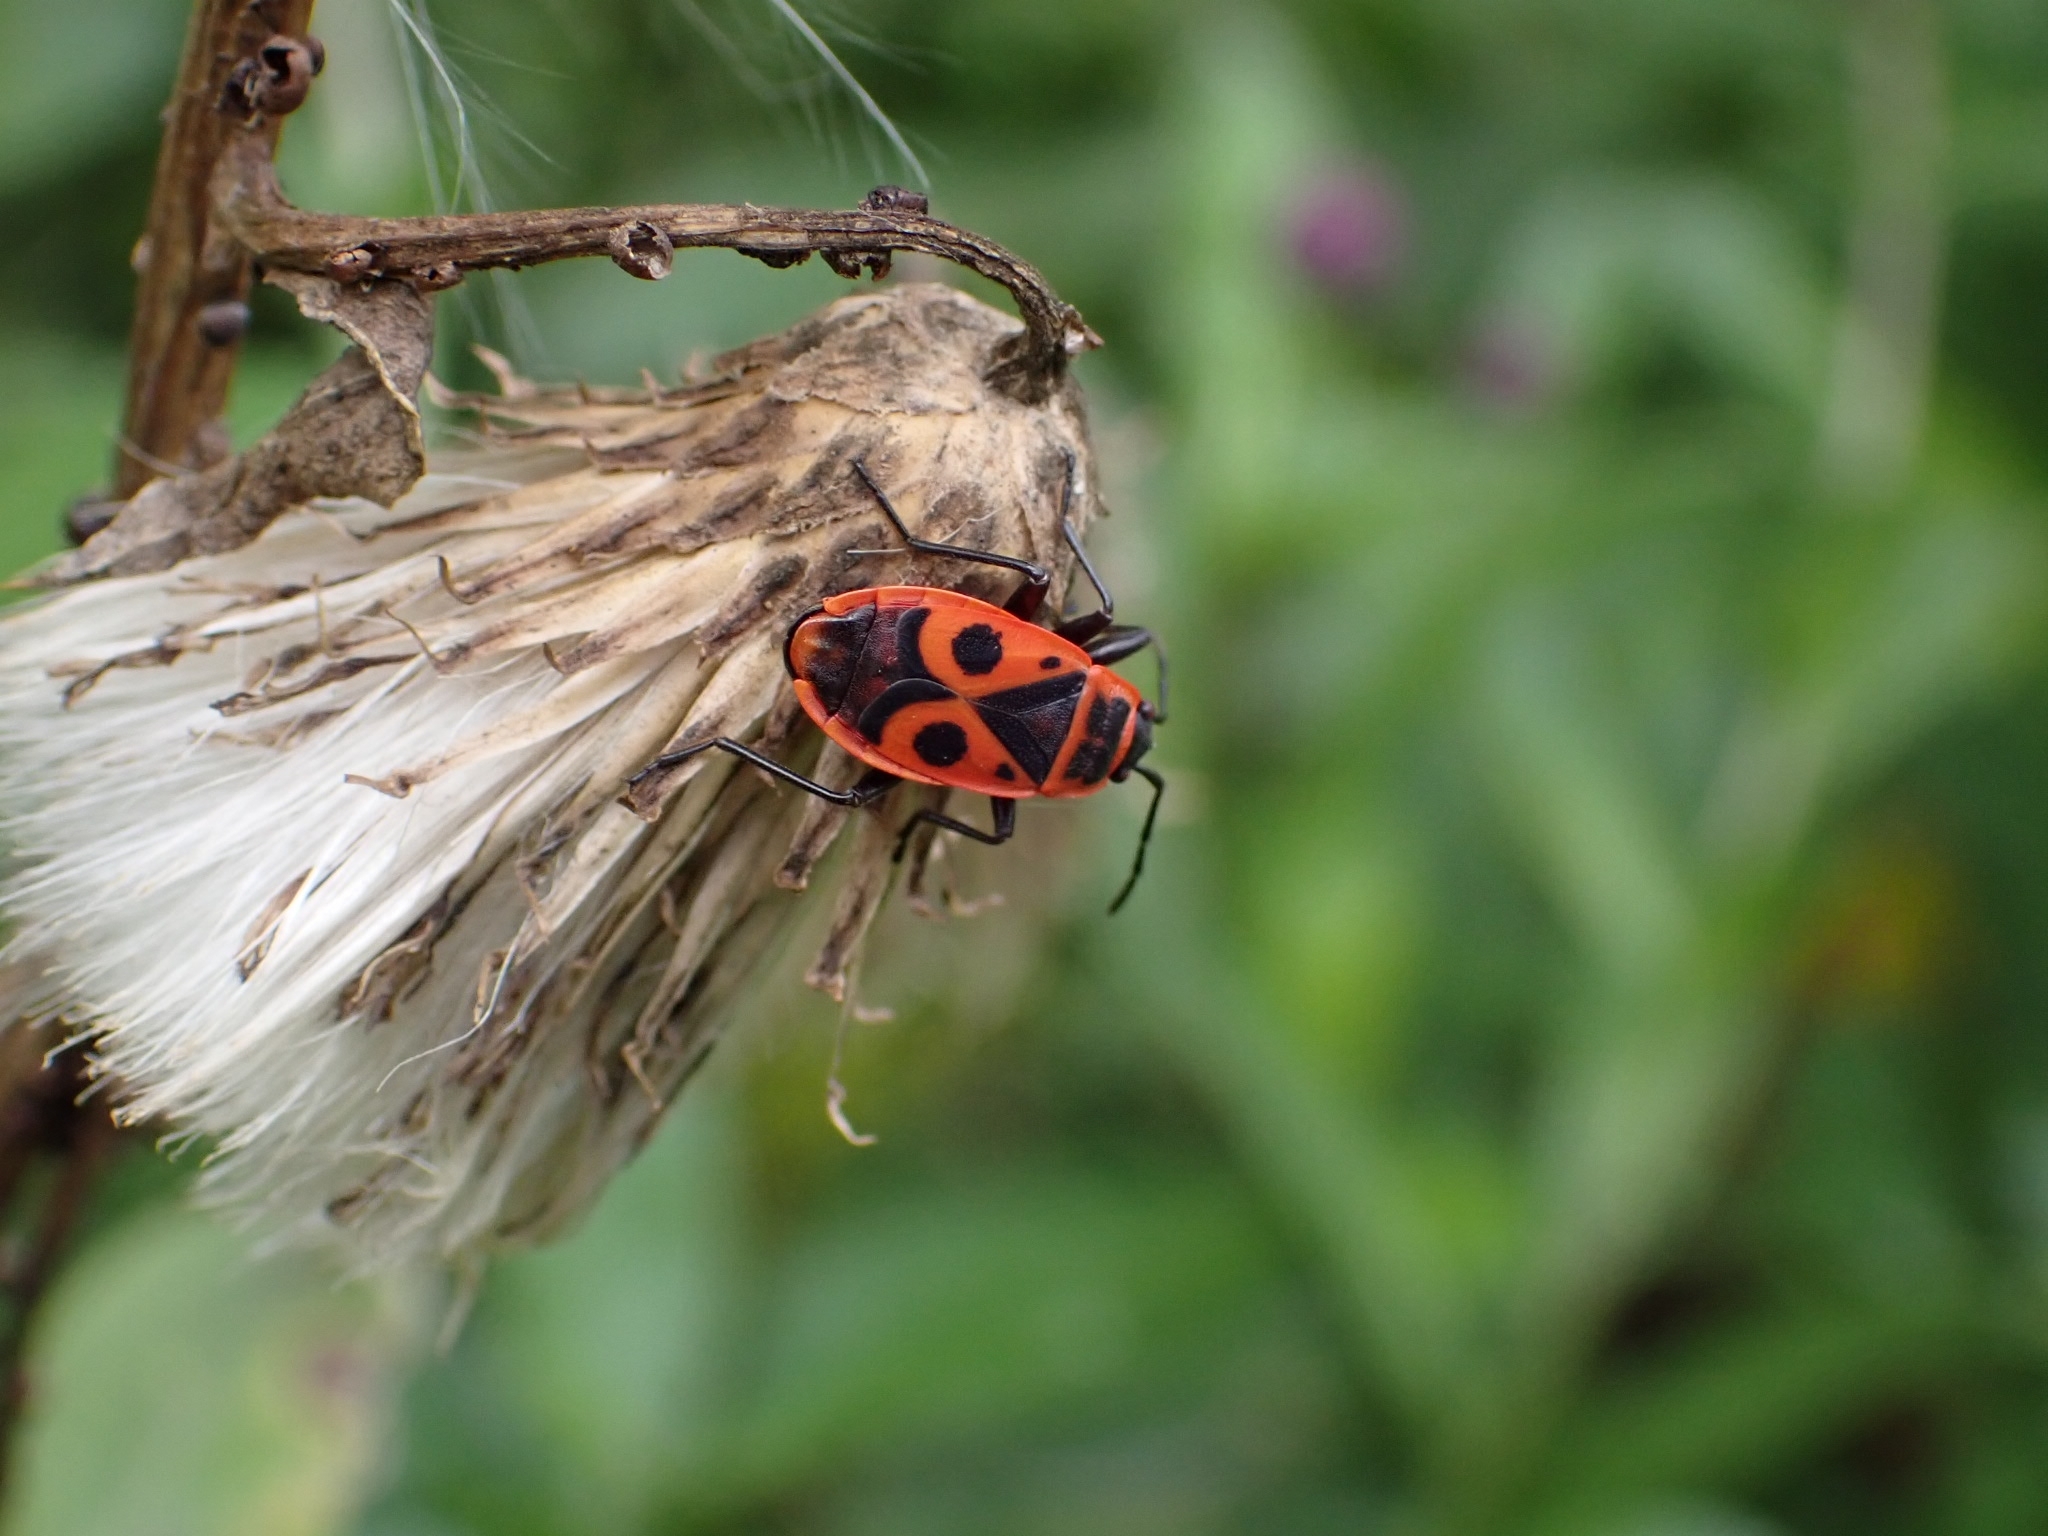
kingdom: Animalia
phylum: Arthropoda
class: Insecta
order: Hemiptera
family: Pyrrhocoridae
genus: Pyrrhocoris
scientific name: Pyrrhocoris apterus
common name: Firebug
